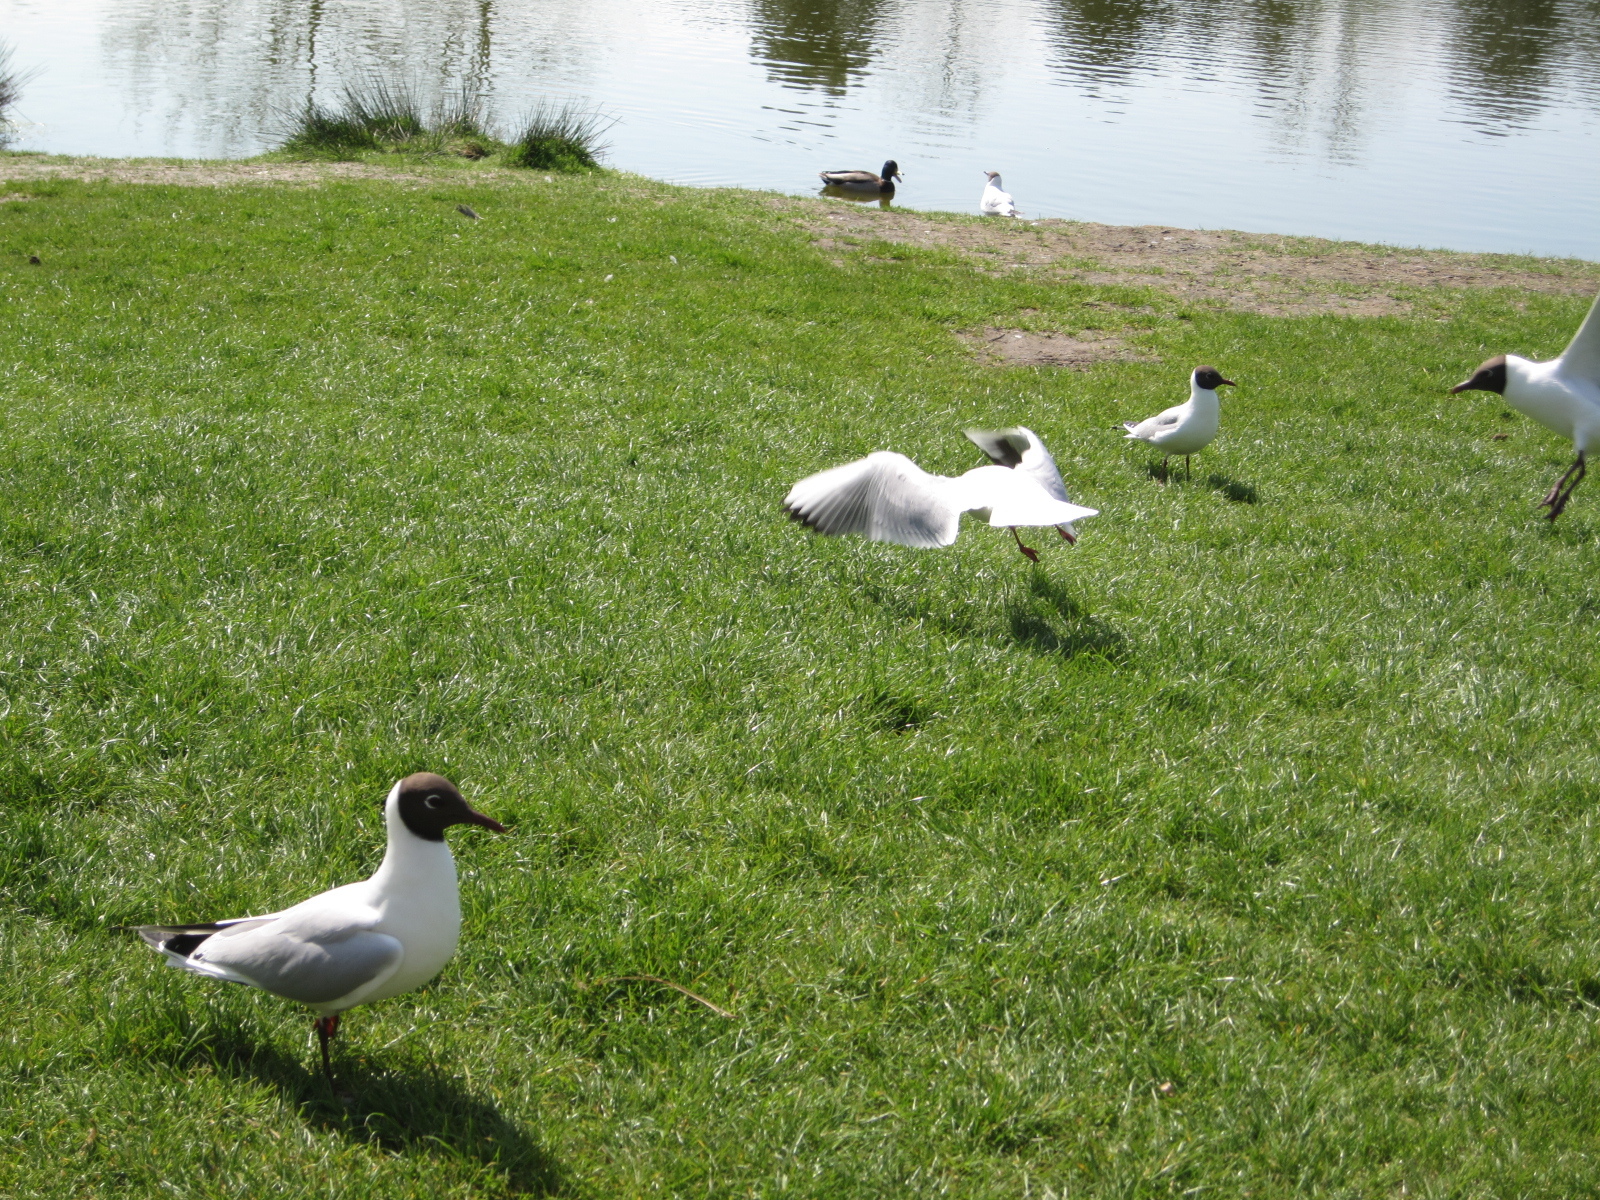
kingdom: Animalia
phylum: Chordata
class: Aves
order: Charadriiformes
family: Laridae
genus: Chroicocephalus
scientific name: Chroicocephalus ridibundus
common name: Black-headed gull
